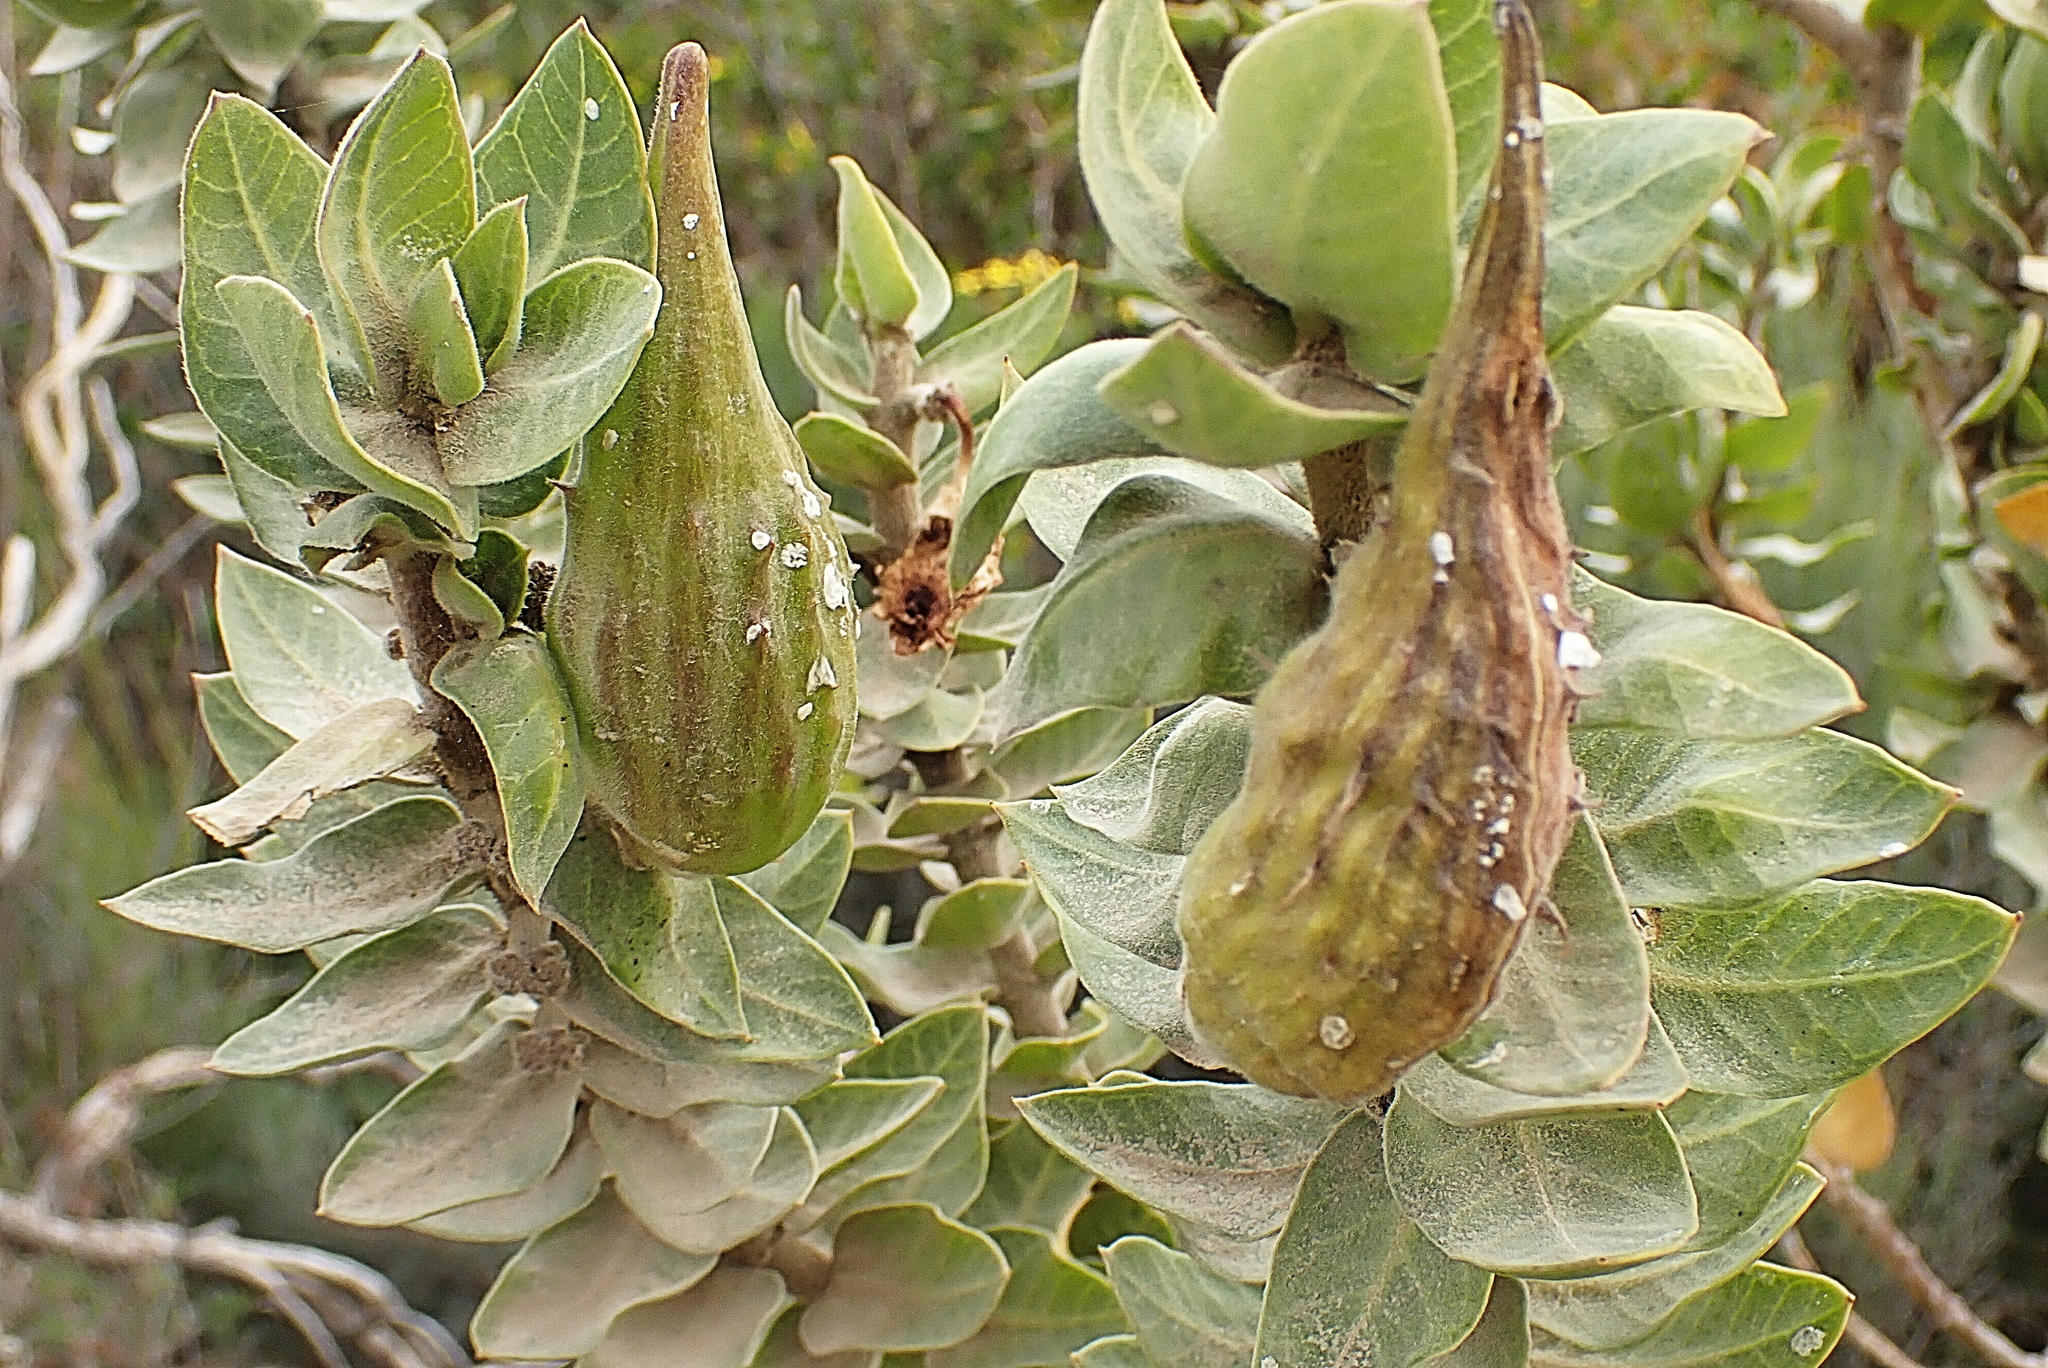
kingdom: Plantae
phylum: Tracheophyta
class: Magnoliopsida
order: Gentianales
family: Apocynaceae
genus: Gomphocarpus
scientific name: Gomphocarpus cancellatus
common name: Wild cotton
